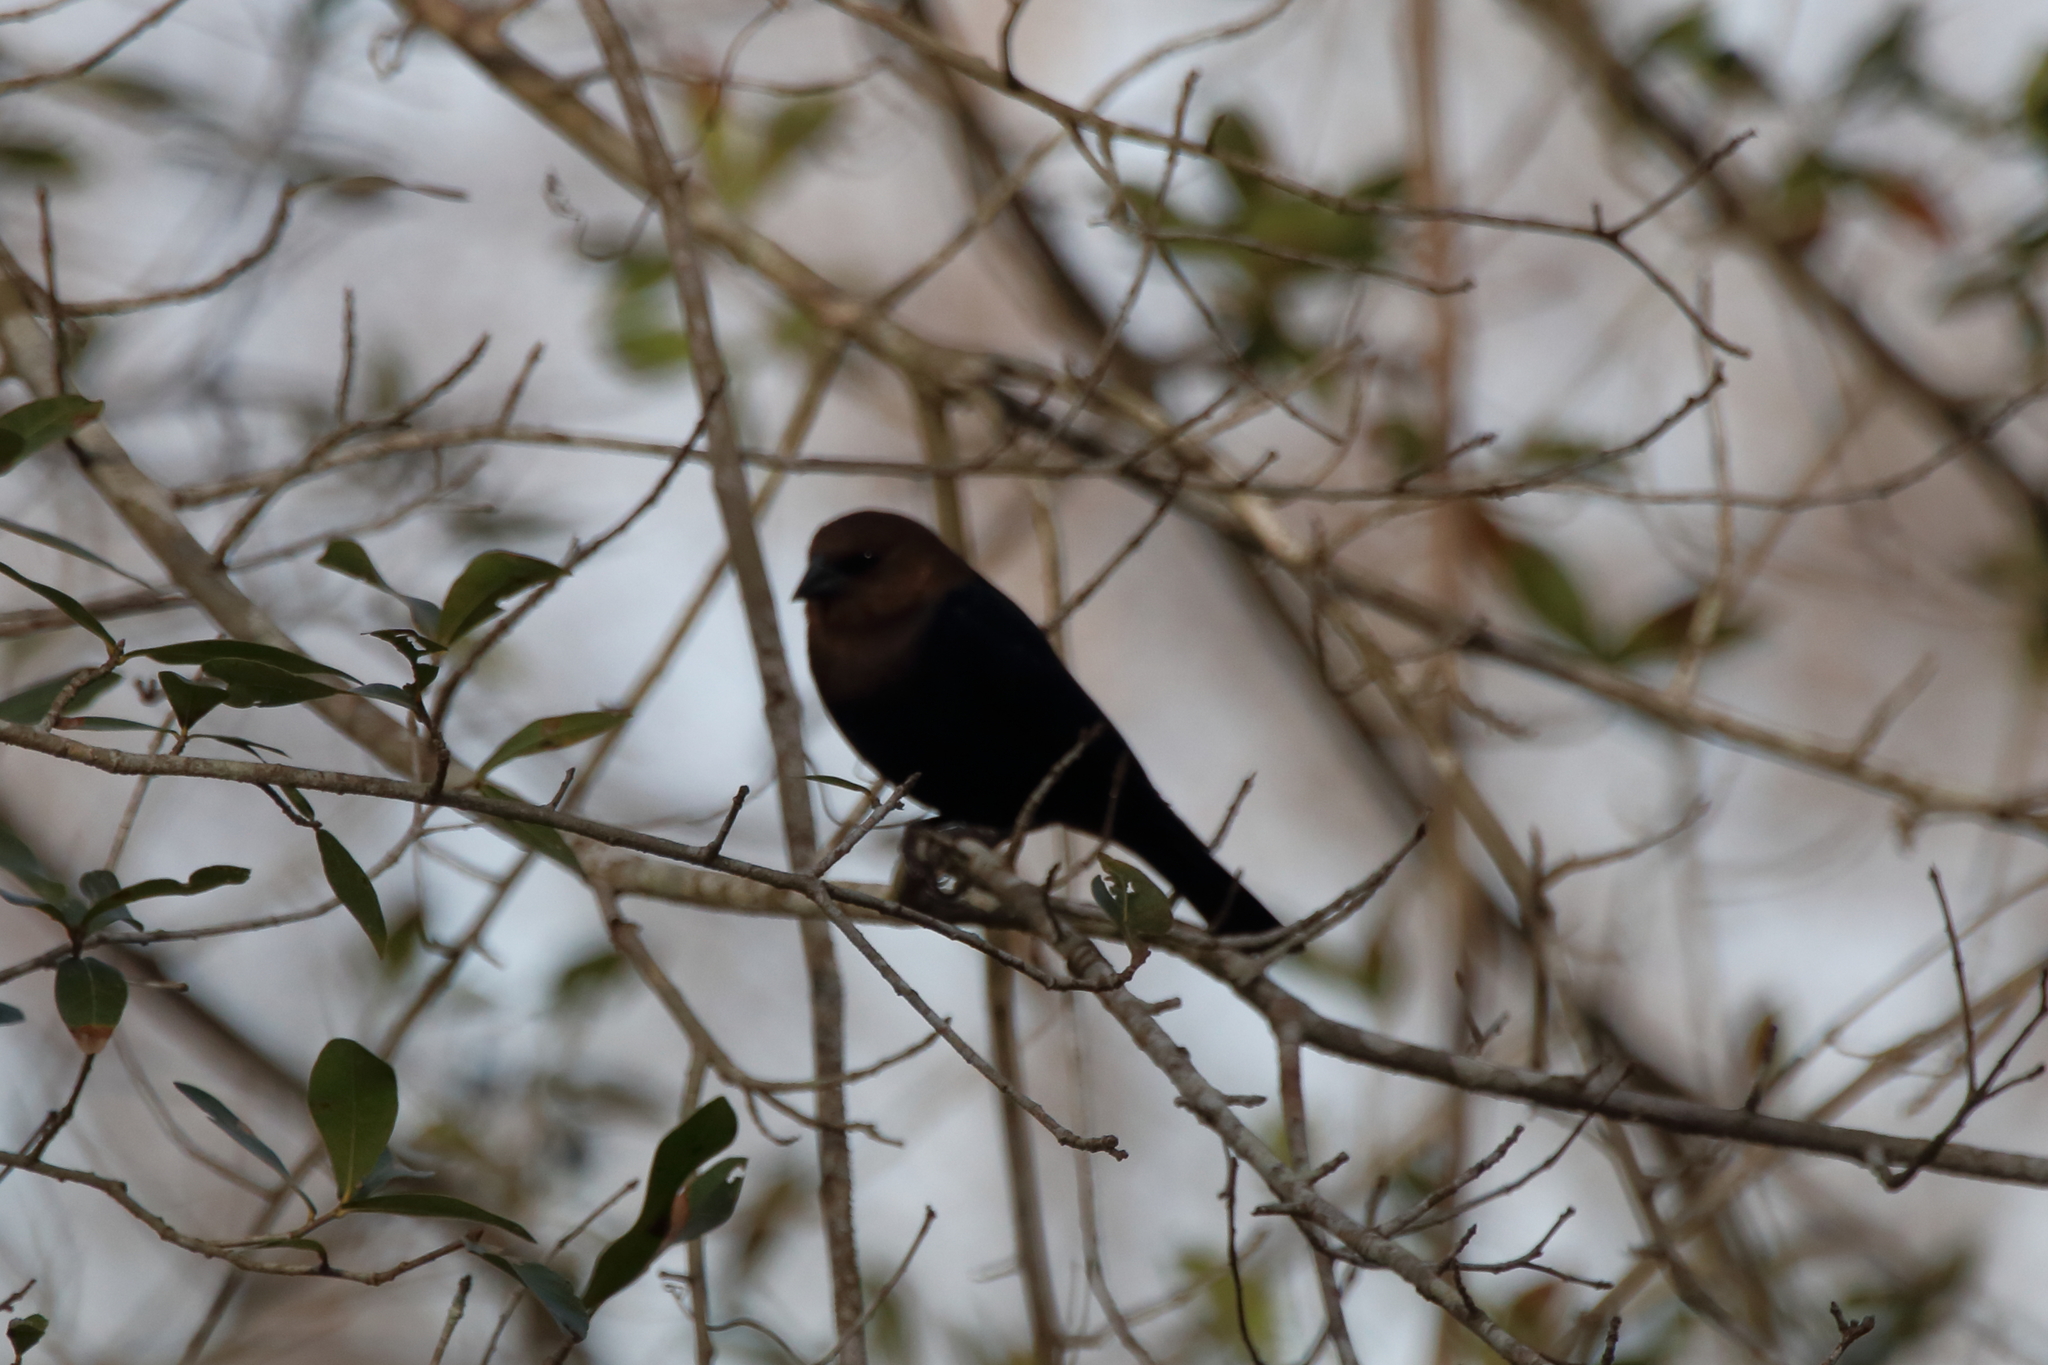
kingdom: Animalia
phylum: Chordata
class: Aves
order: Passeriformes
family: Icteridae
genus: Molothrus
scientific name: Molothrus ater
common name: Brown-headed cowbird
